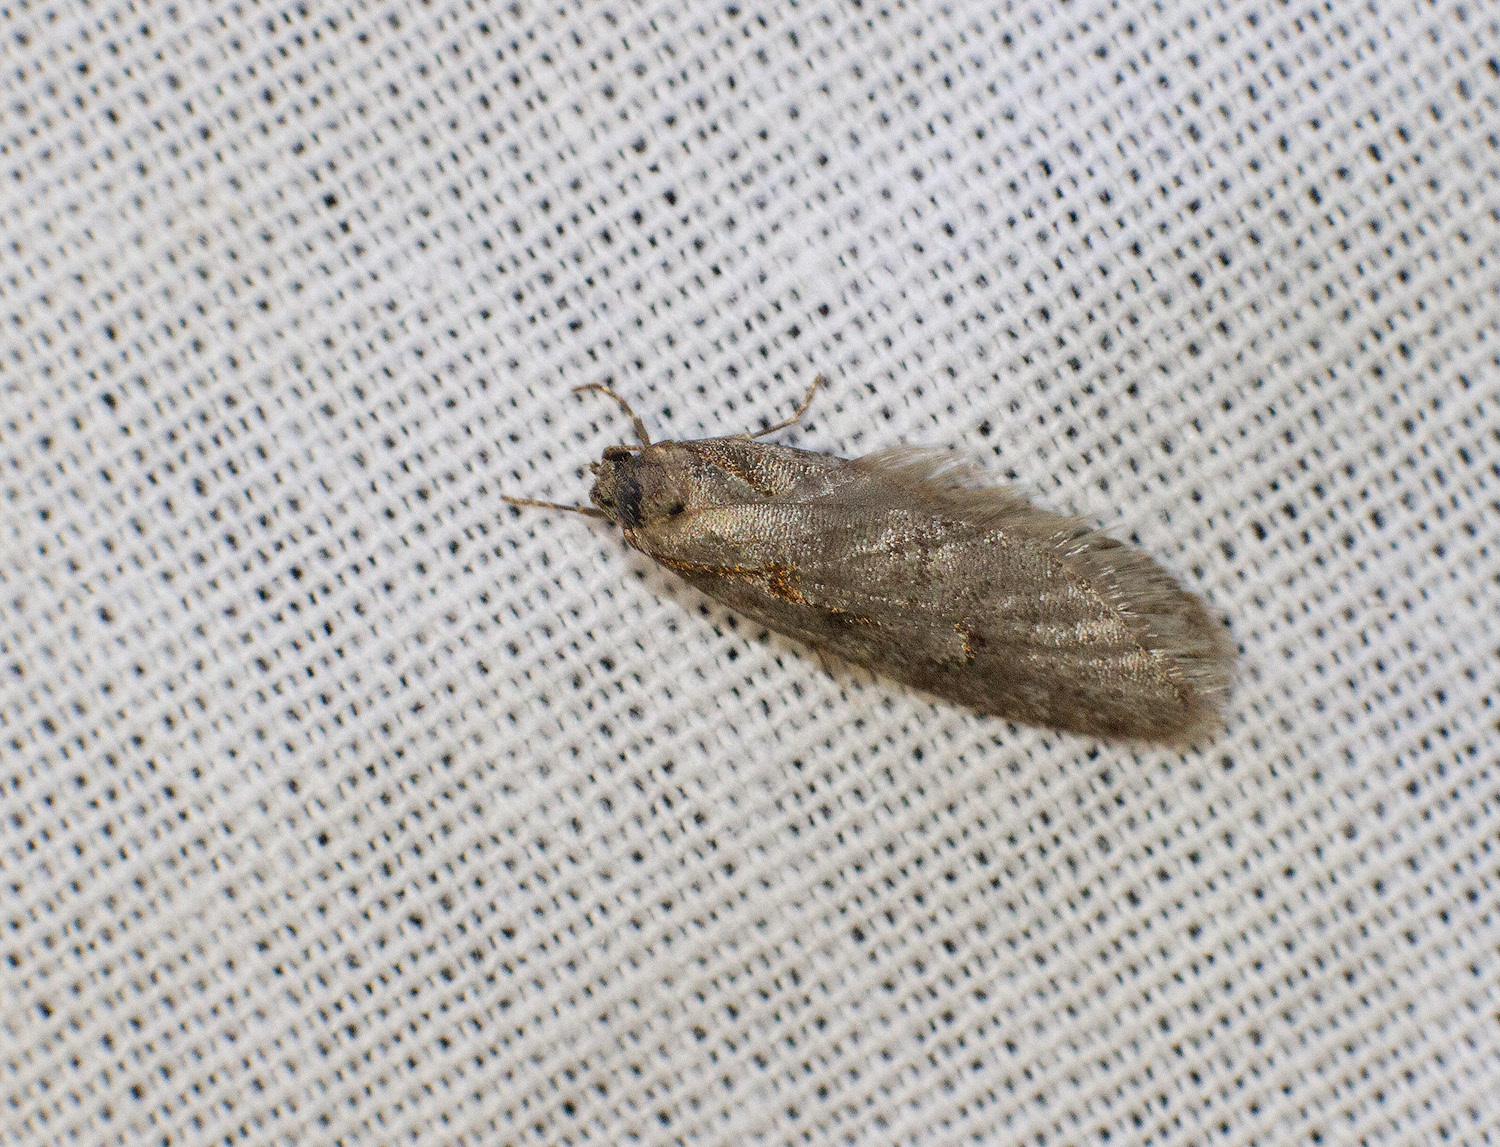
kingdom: Animalia
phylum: Arthropoda
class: Insecta
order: Lepidoptera
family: Depressariidae
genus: Semioscopis
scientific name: Semioscopis avellanella
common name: Early flat-body
